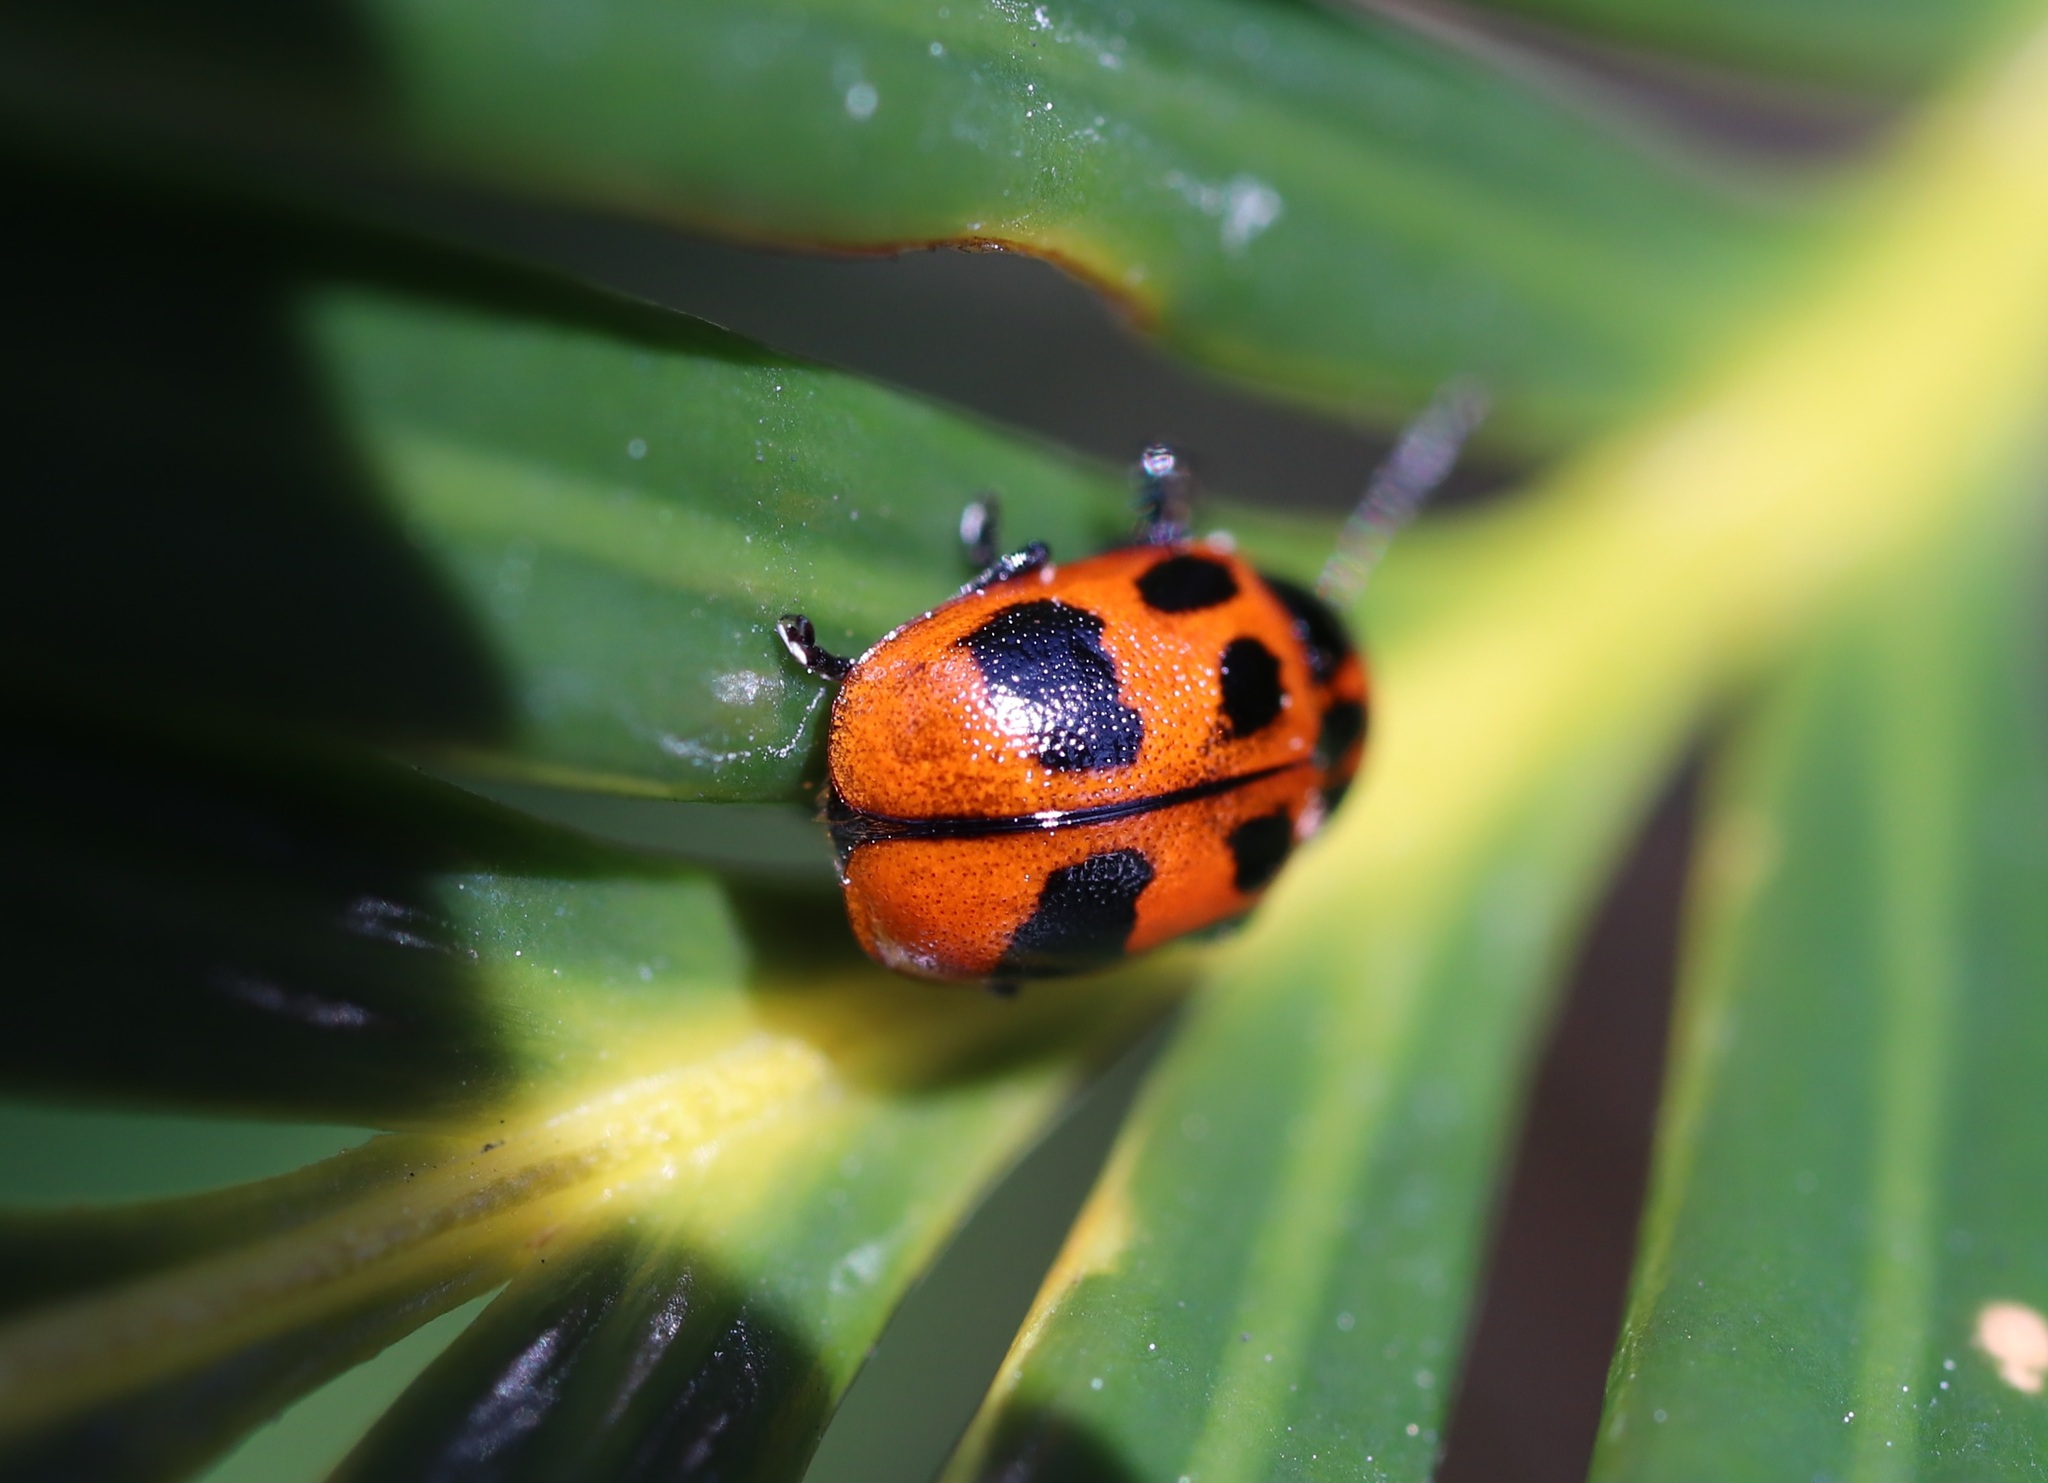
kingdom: Animalia
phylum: Arthropoda
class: Insecta
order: Coleoptera
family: Chrysomelidae
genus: Cryptocephalus
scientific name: Cryptocephalus
